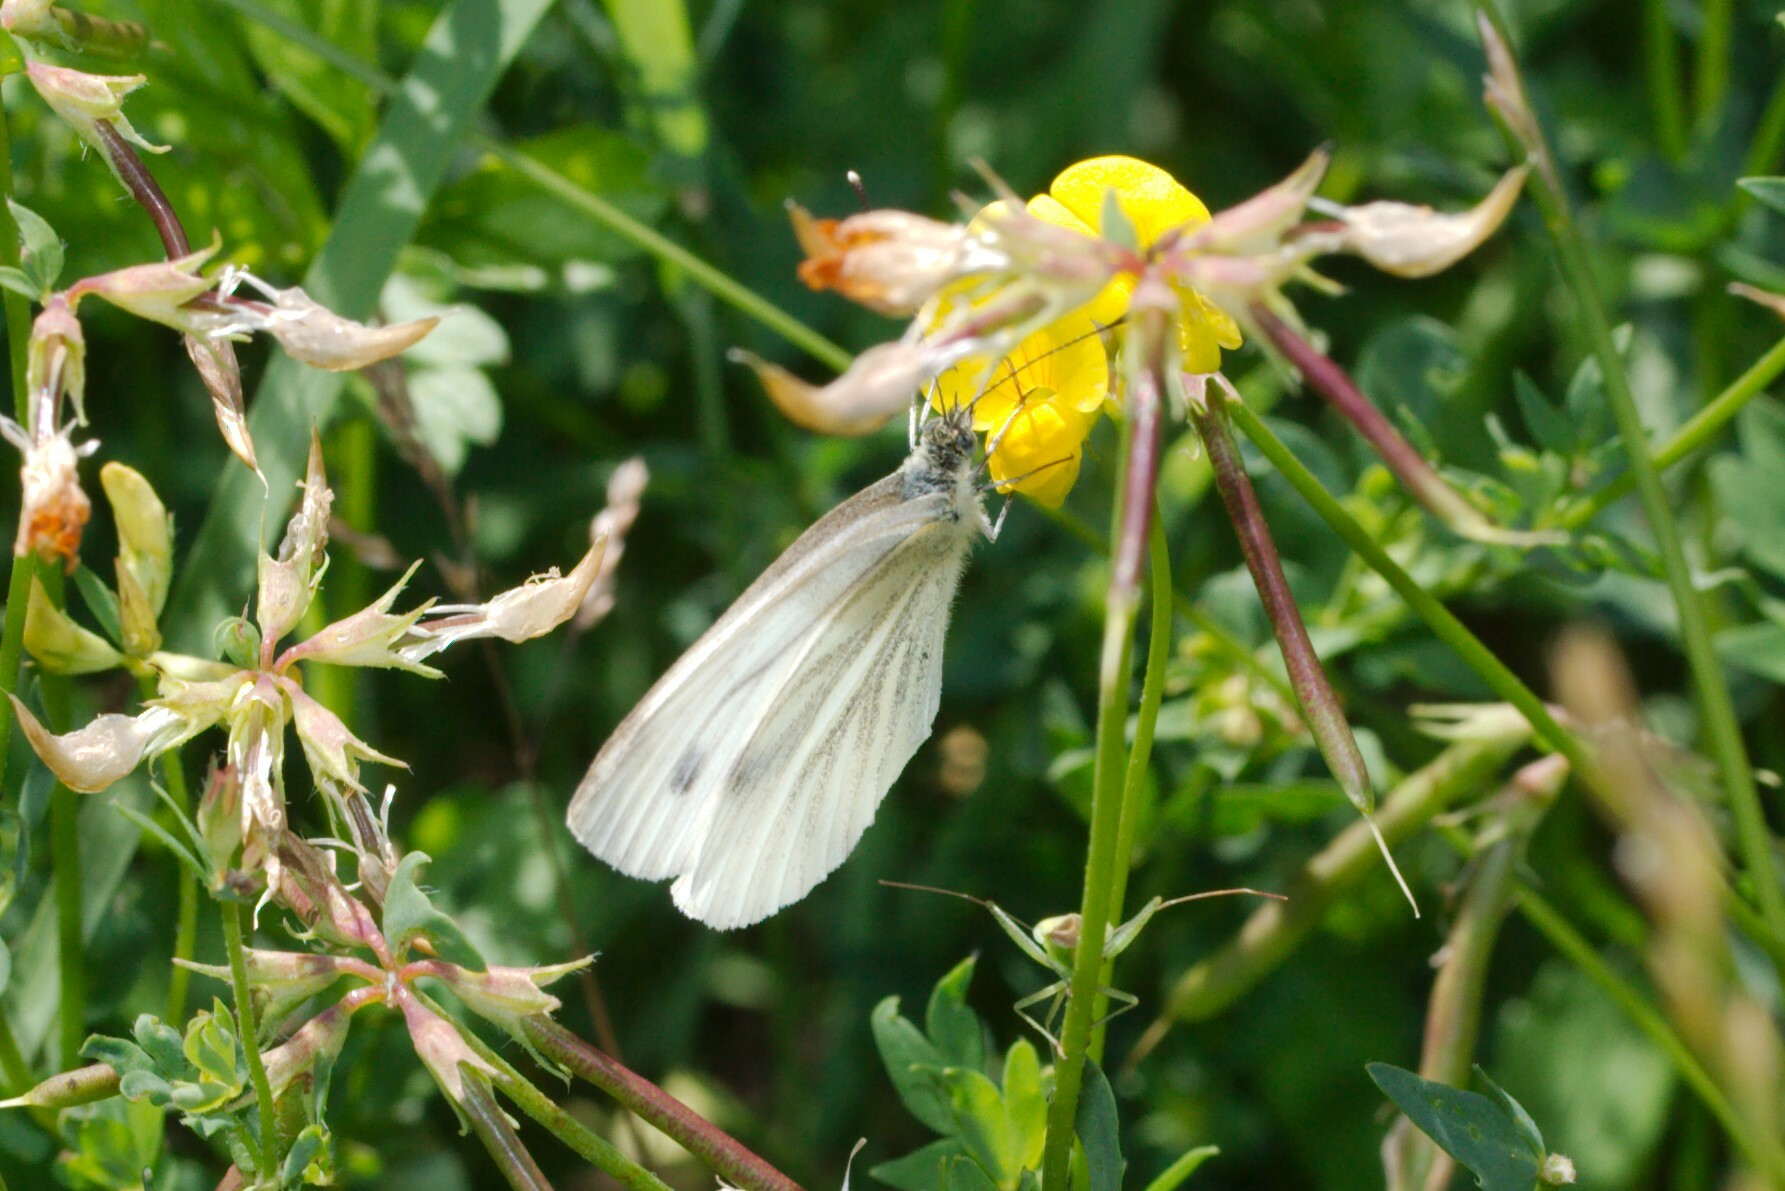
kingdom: Animalia
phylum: Arthropoda
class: Insecta
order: Lepidoptera
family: Pieridae
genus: Pieris
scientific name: Pieris napi
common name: Green-veined white
